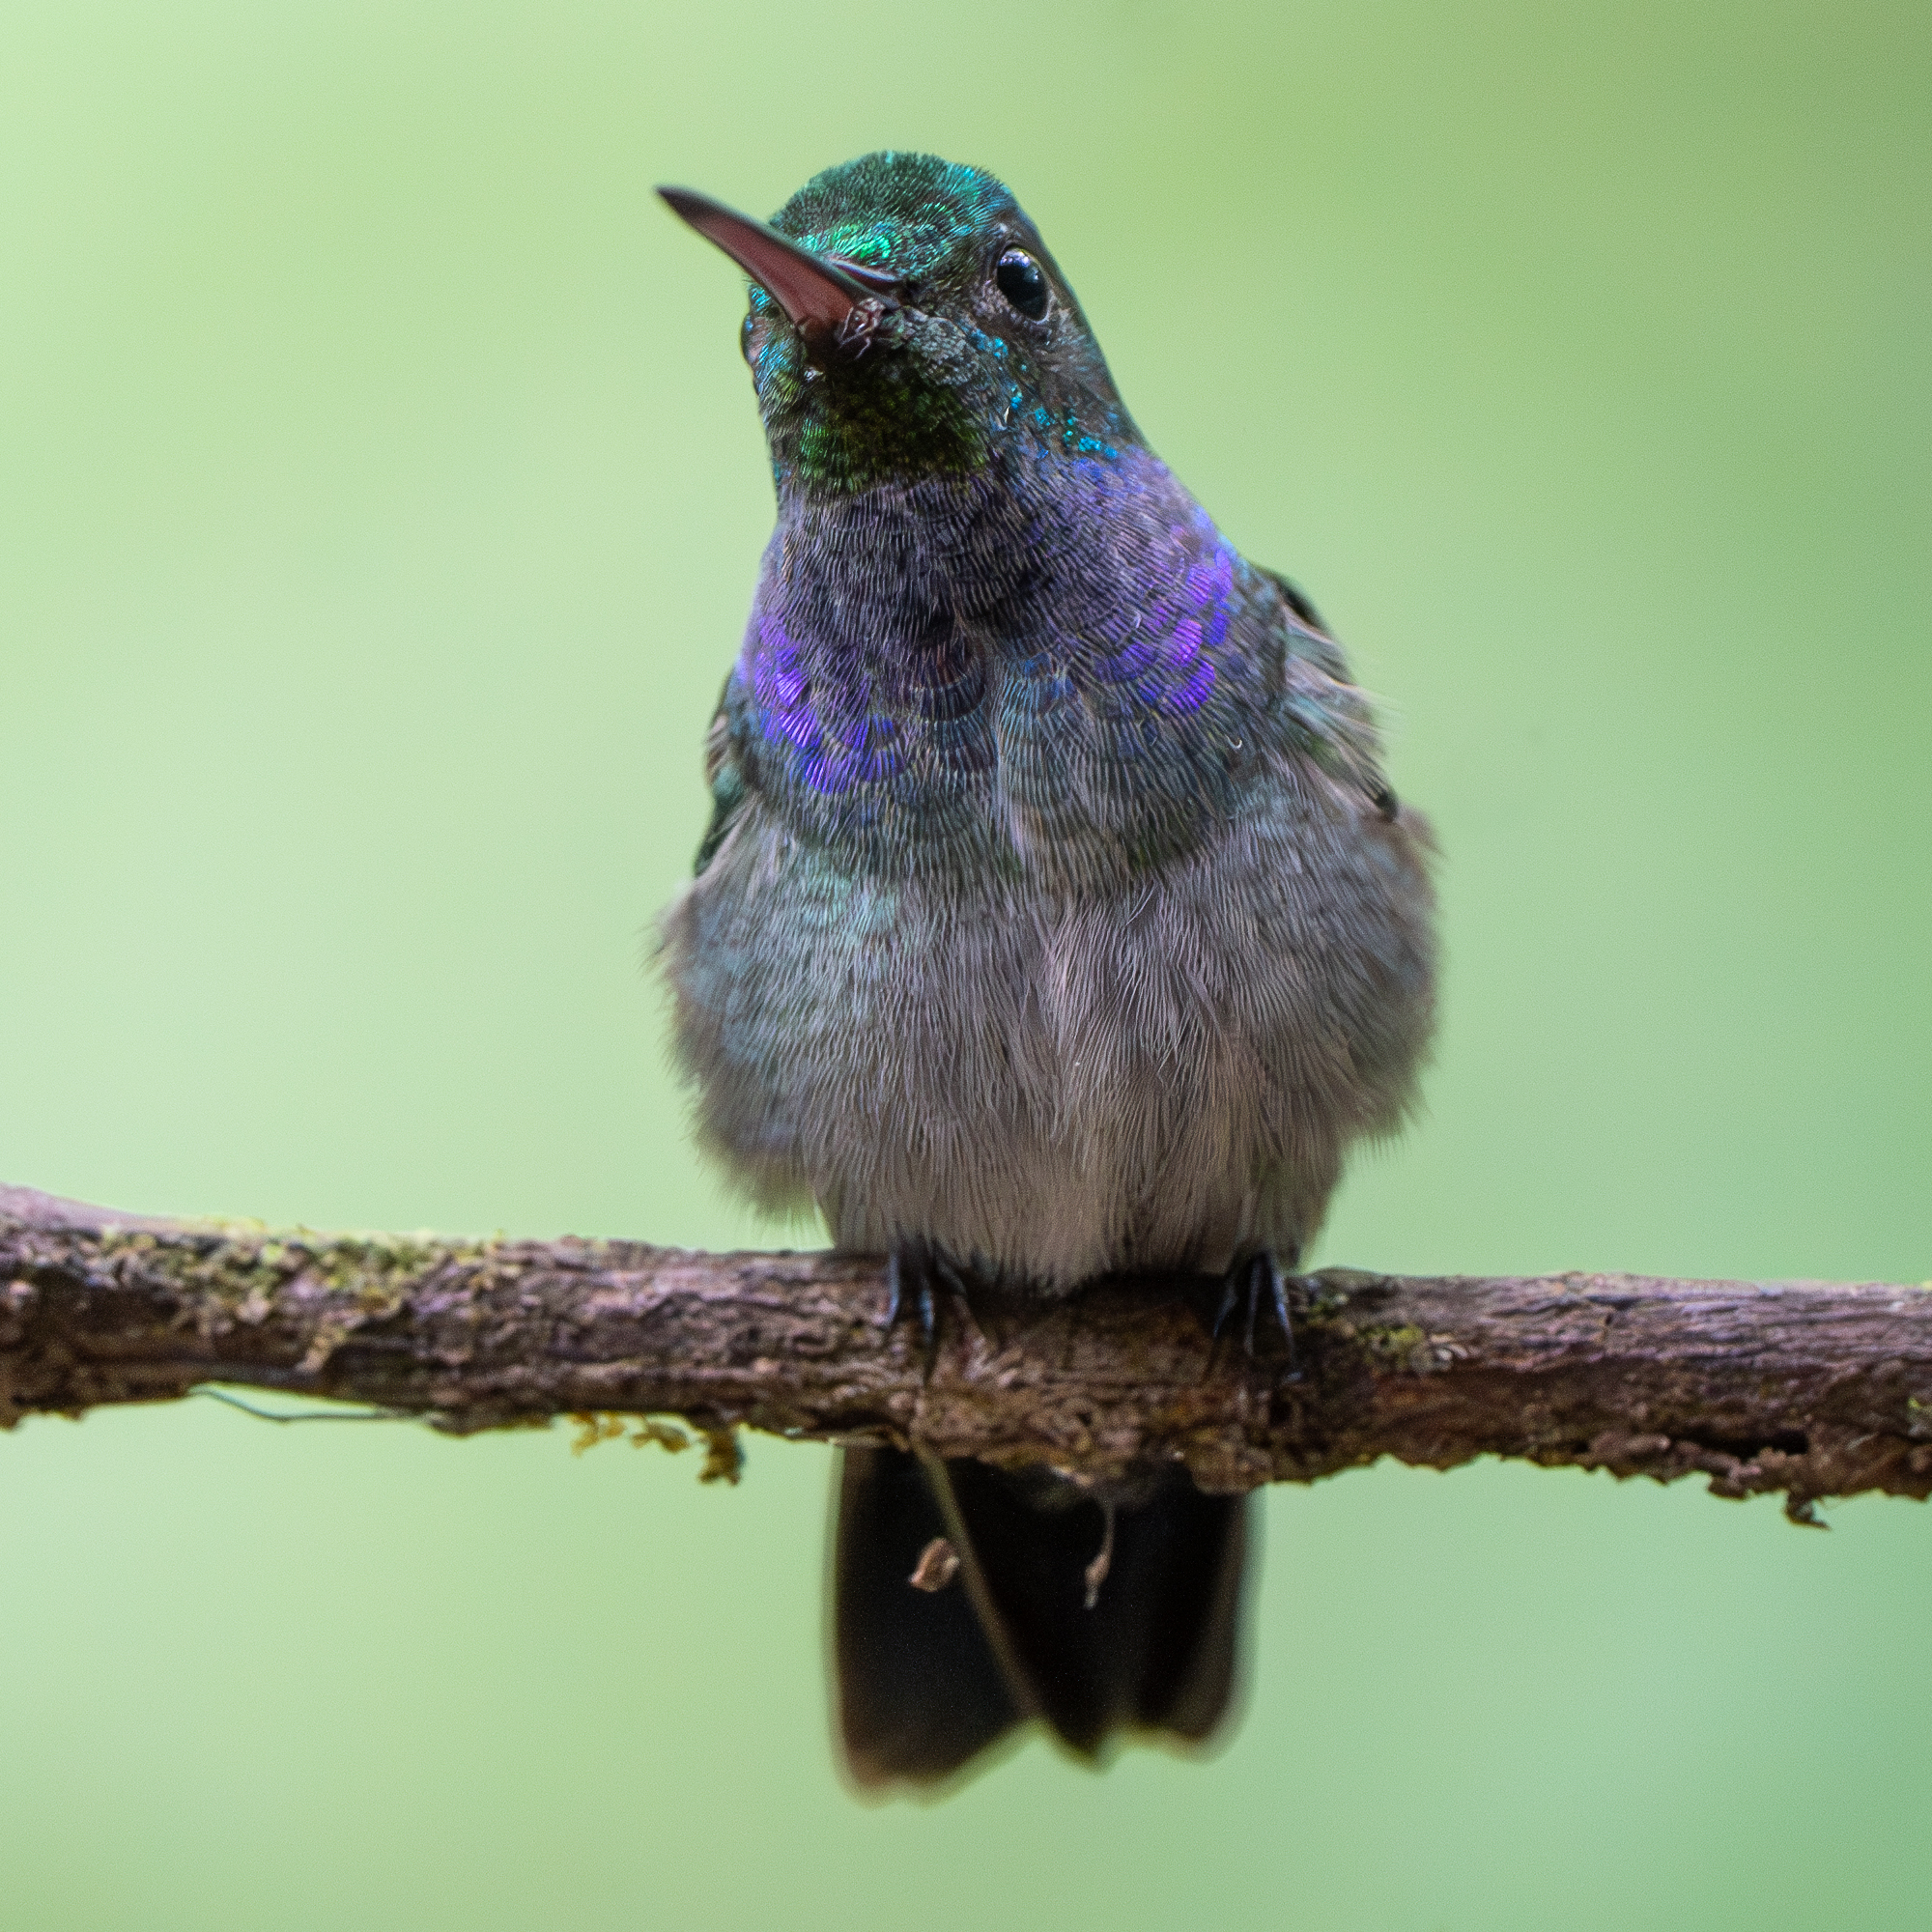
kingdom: Animalia
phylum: Chordata
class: Aves
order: Apodiformes
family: Trochilidae
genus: Polyerata
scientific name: Polyerata amabilis
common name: Blue-chested hummingbird
